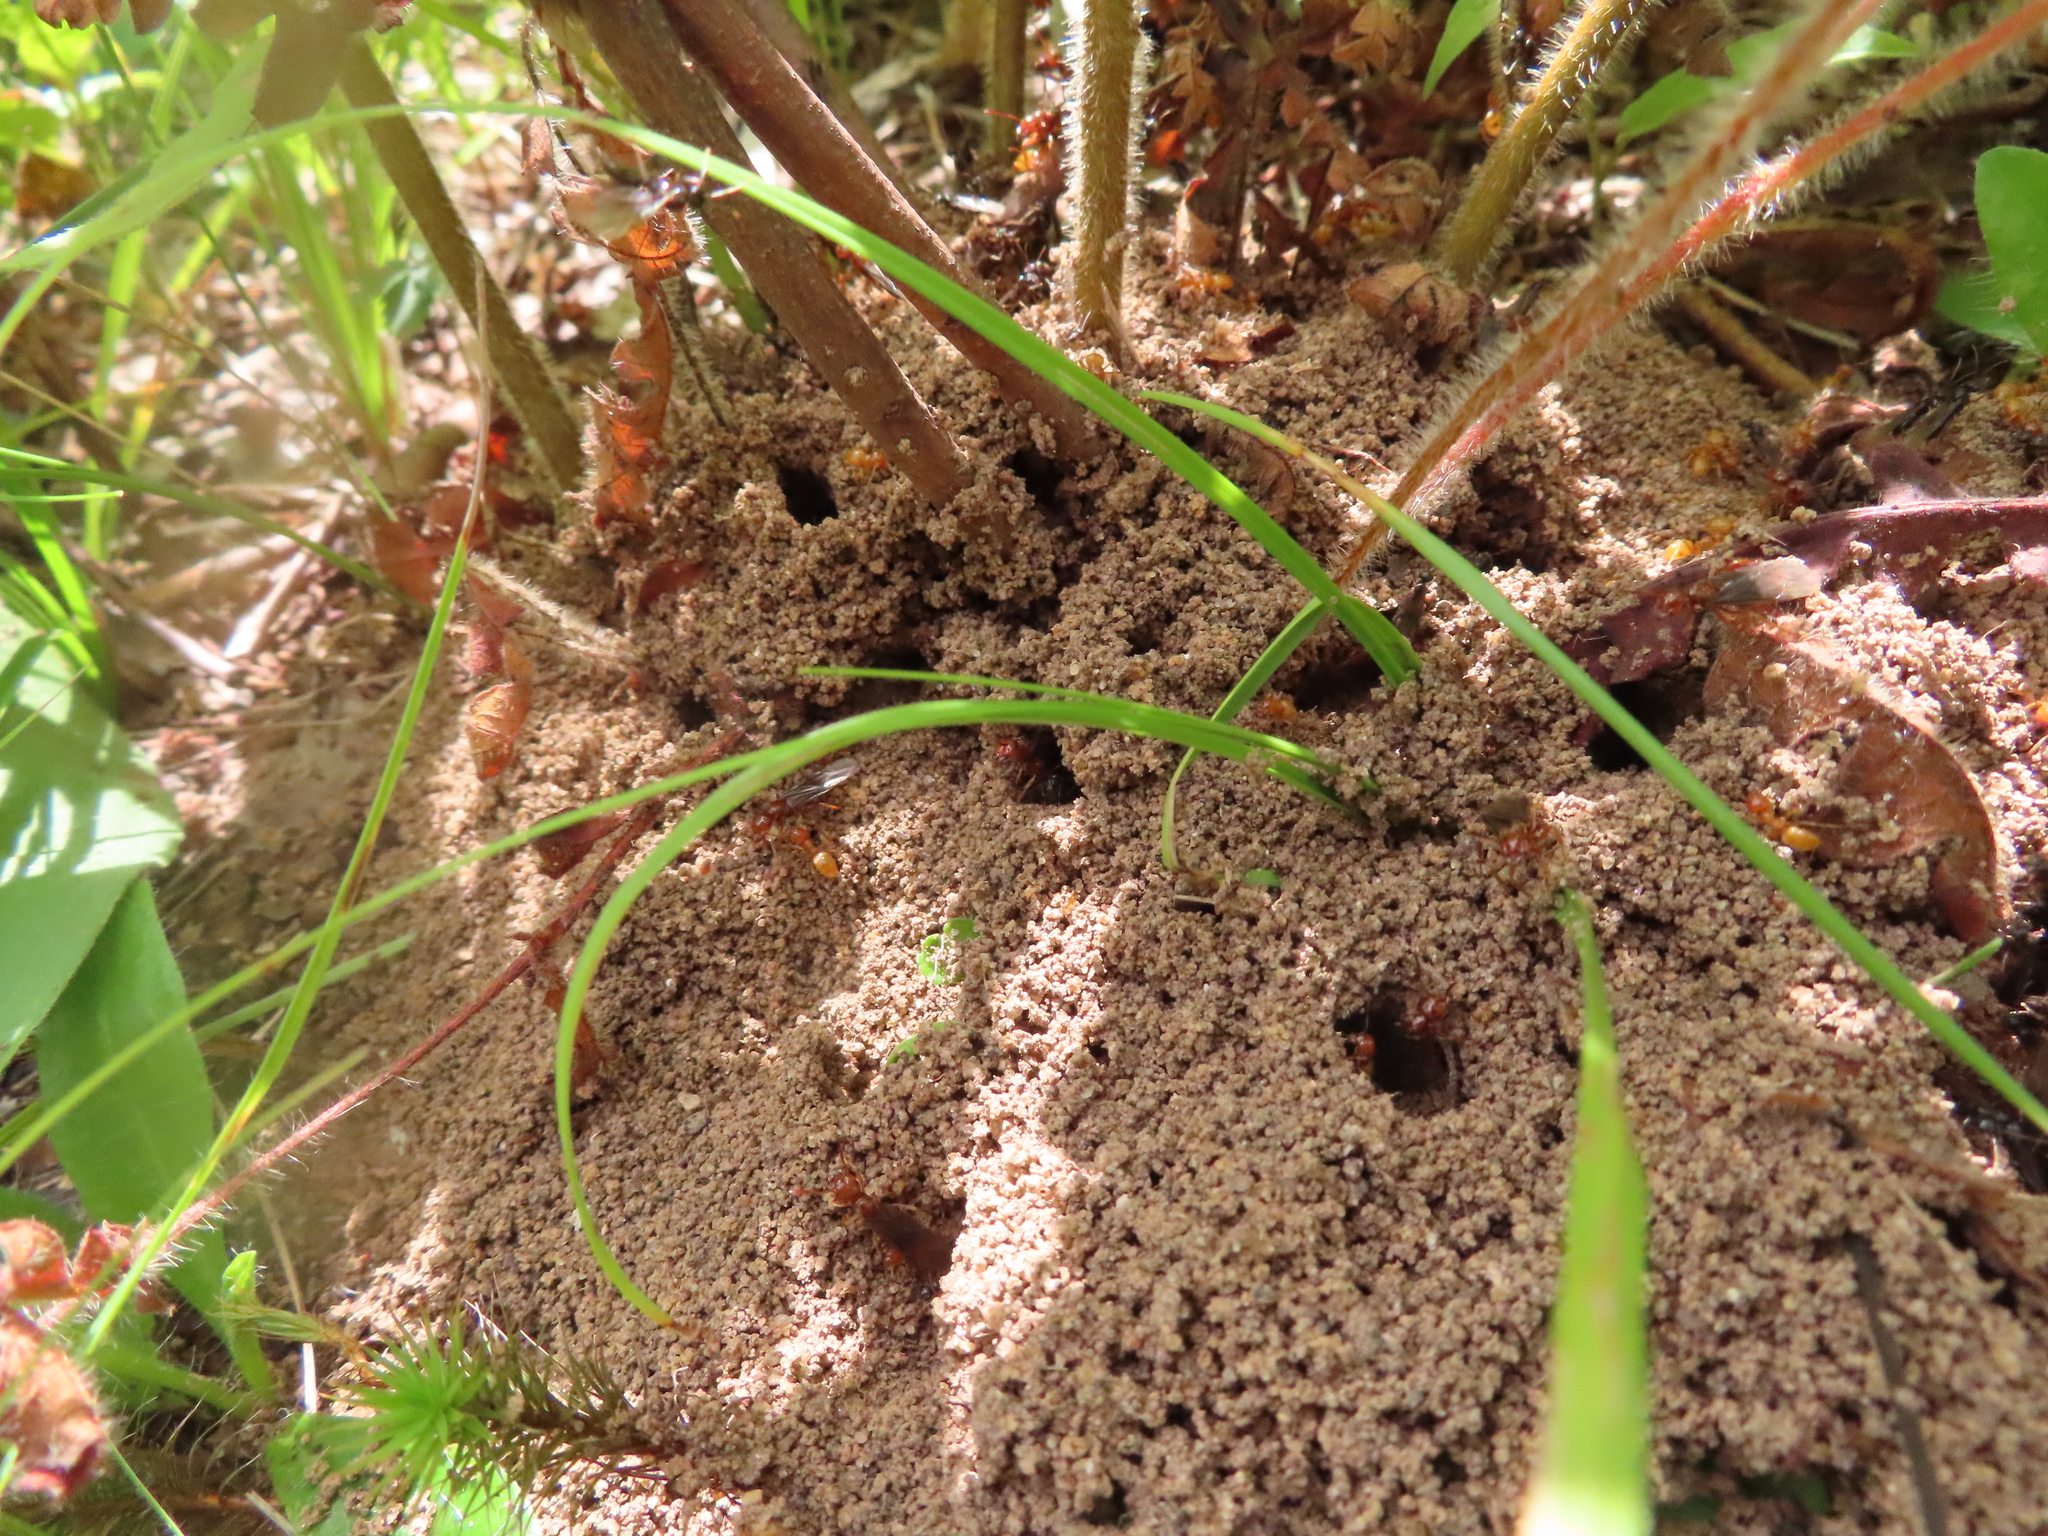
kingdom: Animalia
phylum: Arthropoda
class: Insecta
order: Hymenoptera
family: Formicidae
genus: Acanthomyops
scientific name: Acanthomyops interjectus
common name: Larger yellow ant
